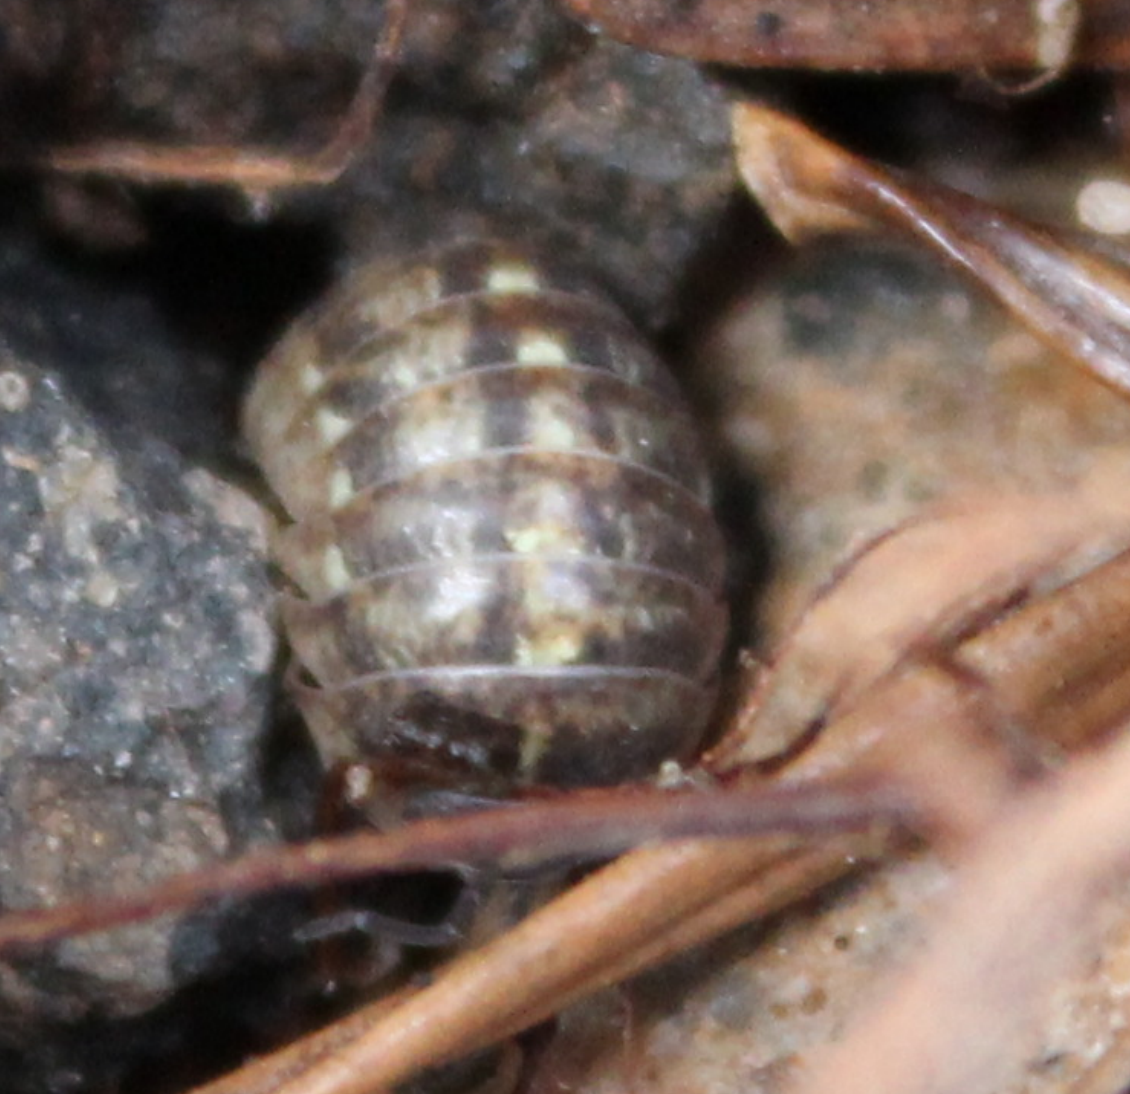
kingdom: Animalia
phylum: Arthropoda
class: Malacostraca
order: Isopoda
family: Armadillidiidae
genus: Armadillidium
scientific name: Armadillidium vulgare
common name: Common pill woodlouse
